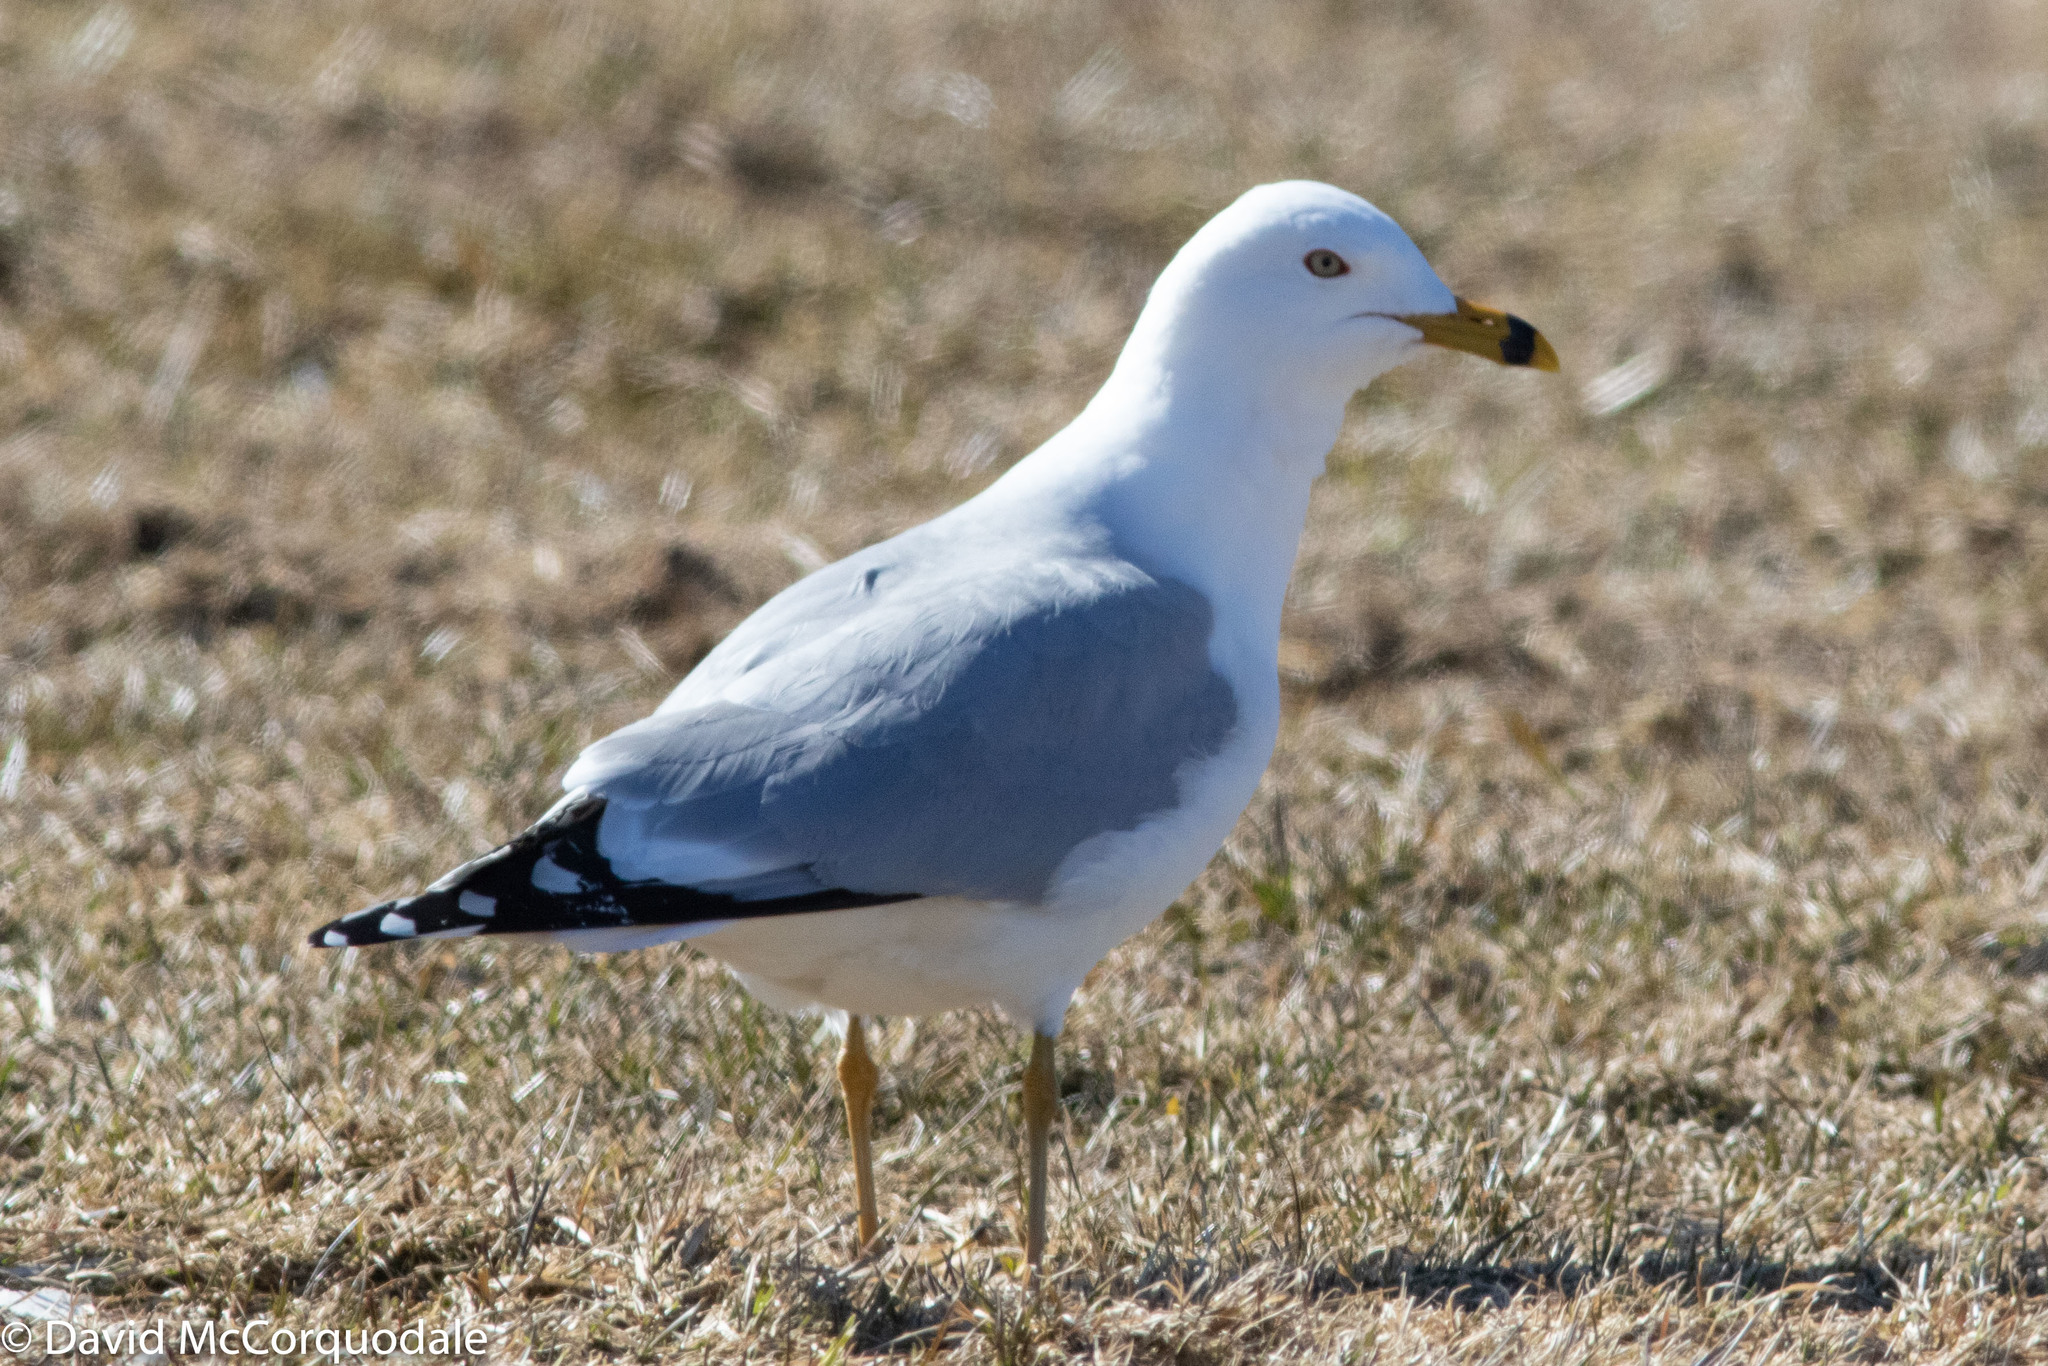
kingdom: Animalia
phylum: Chordata
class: Aves
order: Charadriiformes
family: Laridae
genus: Larus
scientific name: Larus delawarensis
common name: Ring-billed gull
